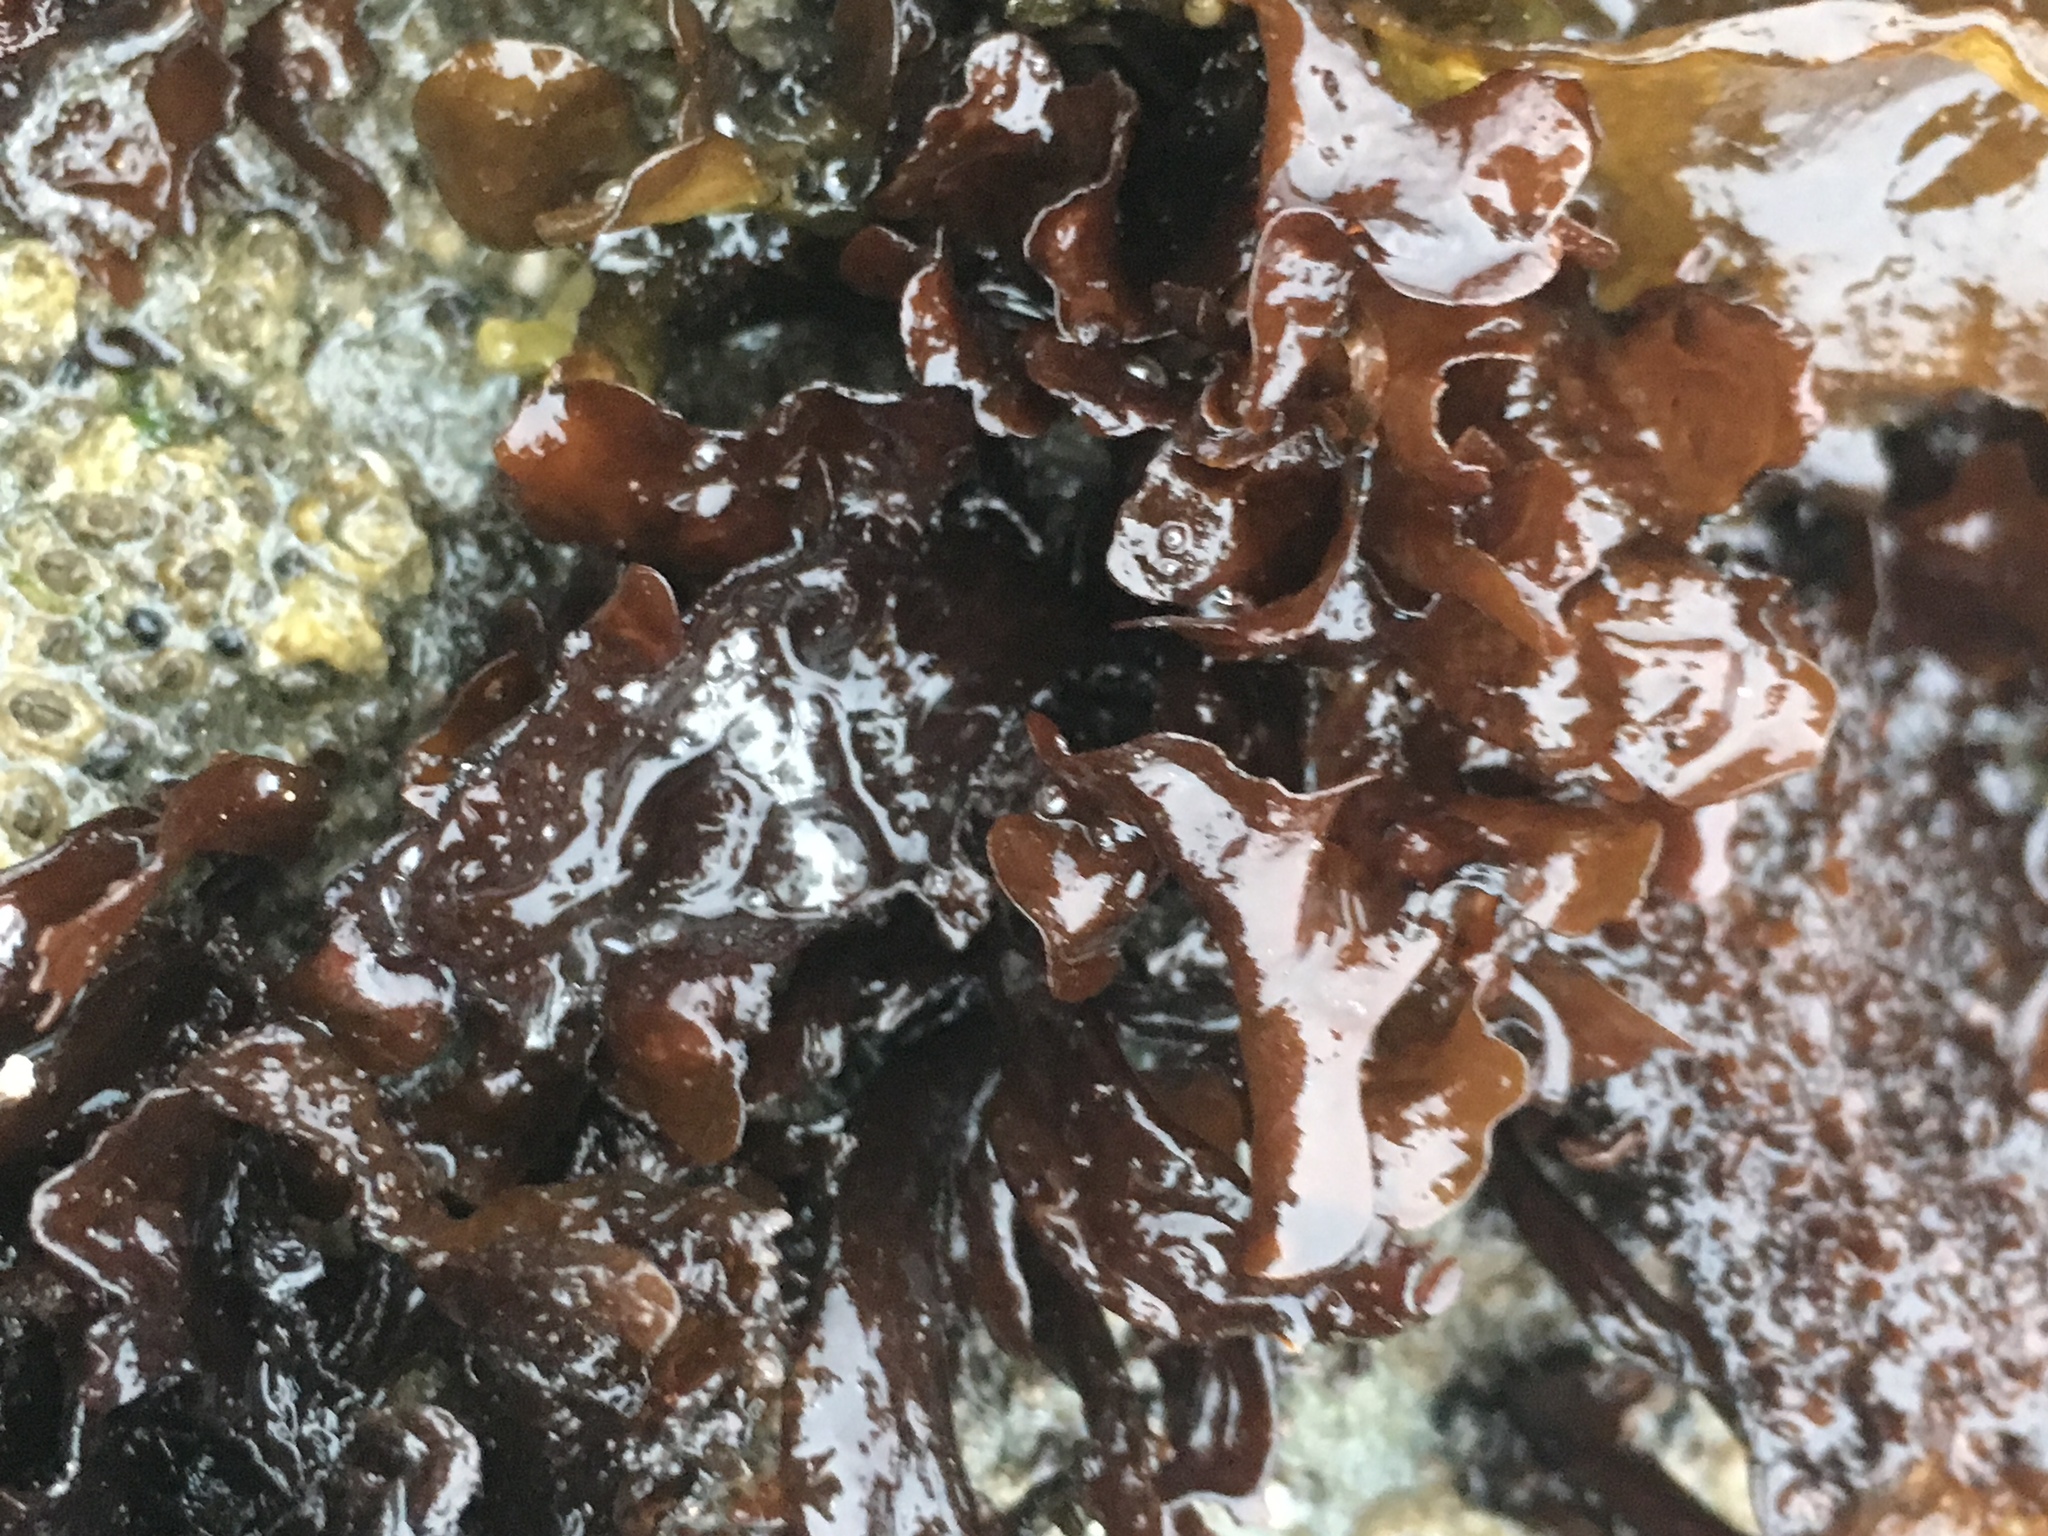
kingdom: Plantae
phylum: Rhodophyta
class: Florideophyceae
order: Gigartinales
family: Phyllophoraceae
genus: Mastocarpus
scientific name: Mastocarpus papillatus
